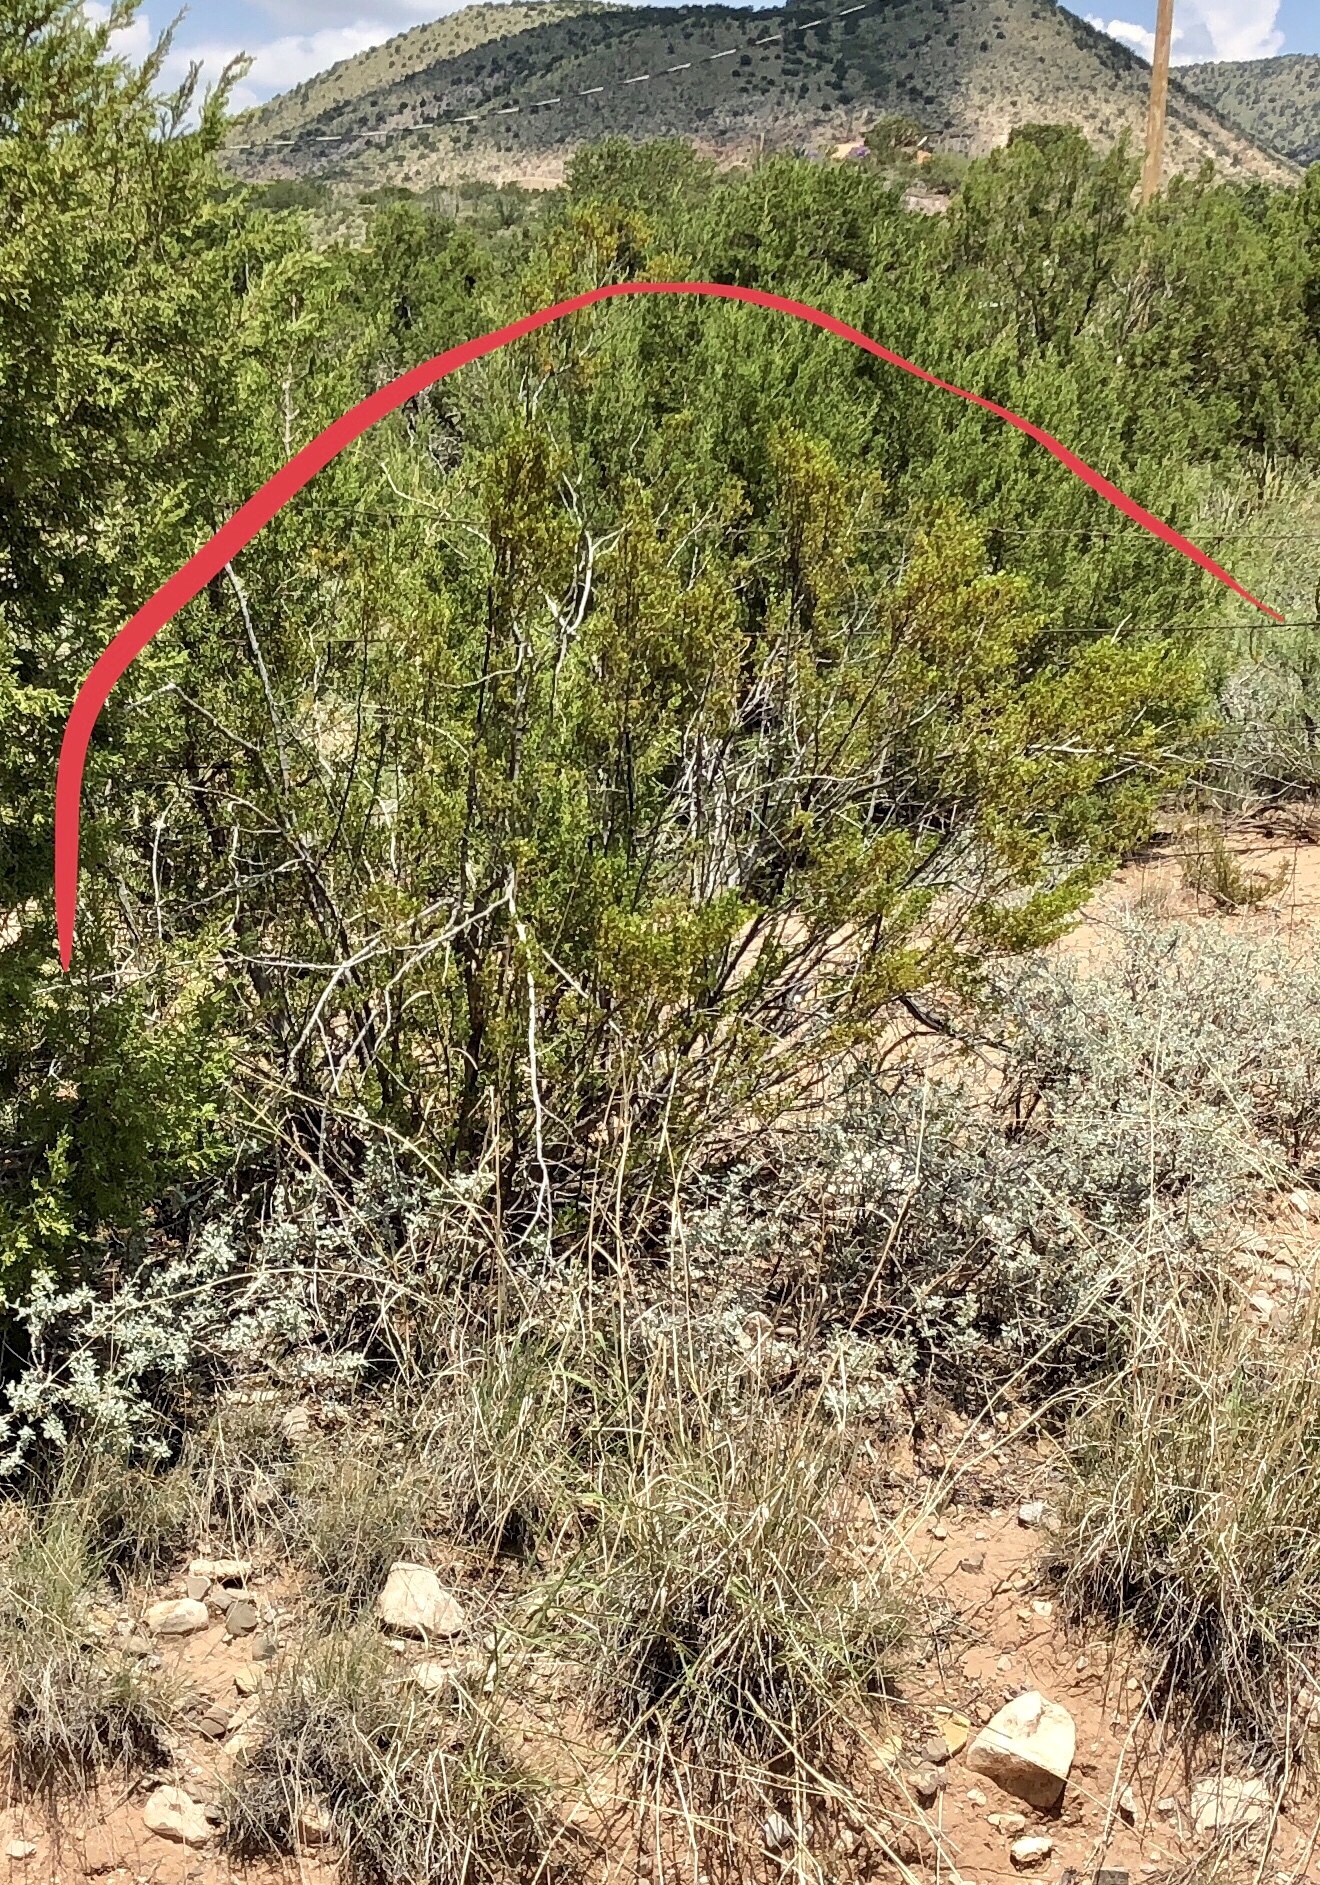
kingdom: Plantae
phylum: Tracheophyta
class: Magnoliopsida
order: Zygophyllales
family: Zygophyllaceae
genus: Larrea
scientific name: Larrea tridentata
